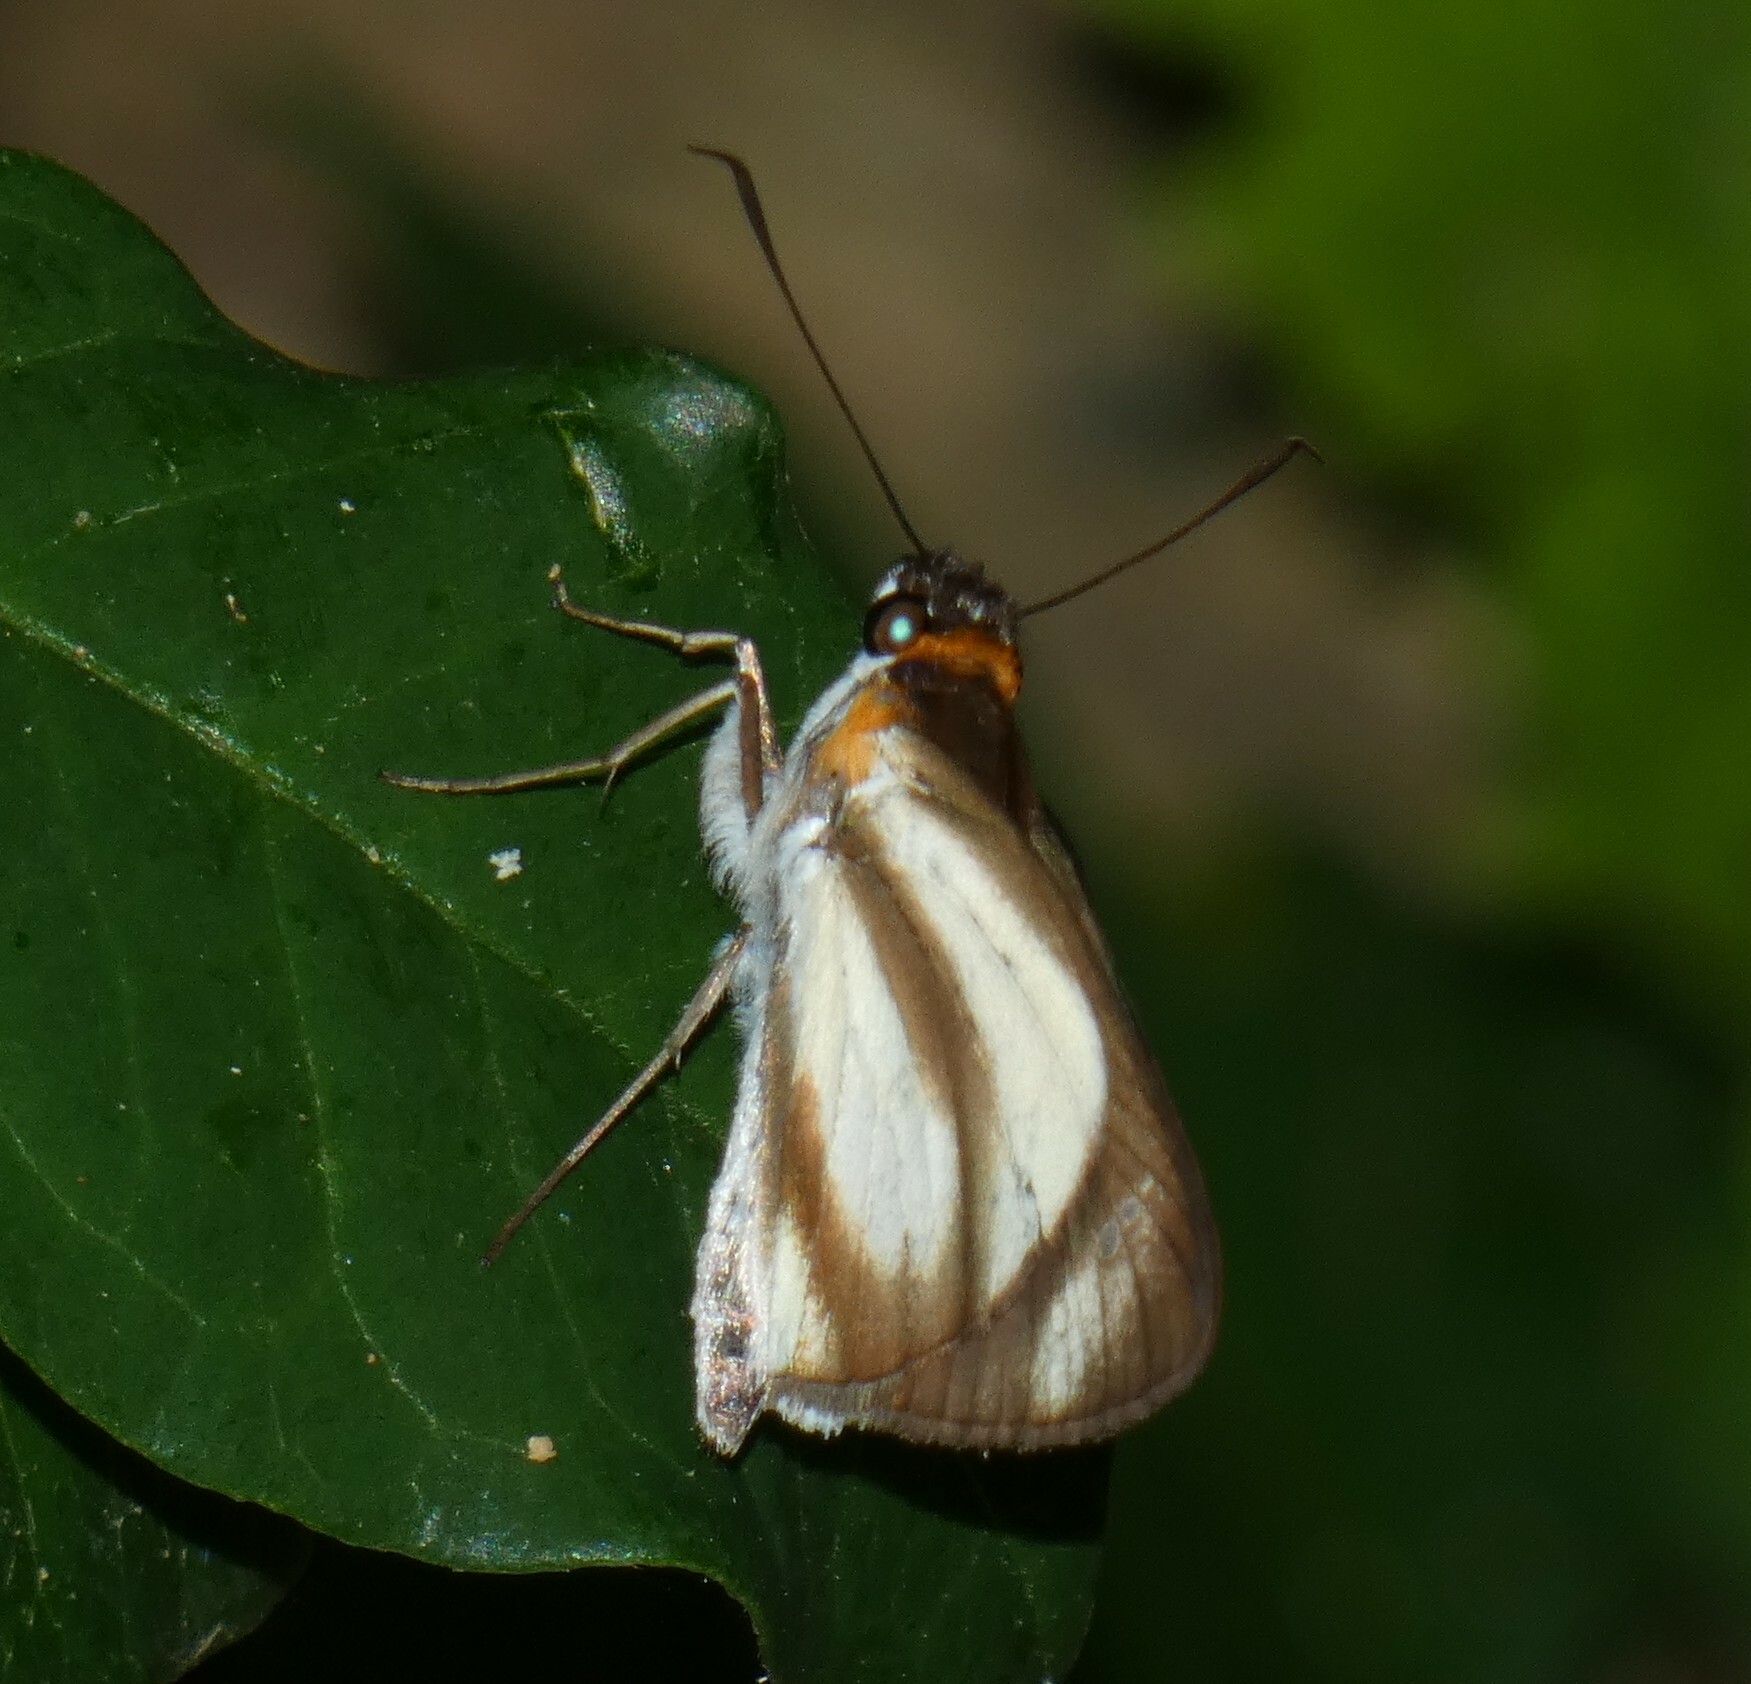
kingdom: Animalia
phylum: Arthropoda
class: Insecta
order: Lepidoptera
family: Hesperiidae
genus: Vettius
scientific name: Vettius marcus
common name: Marcus skipper
